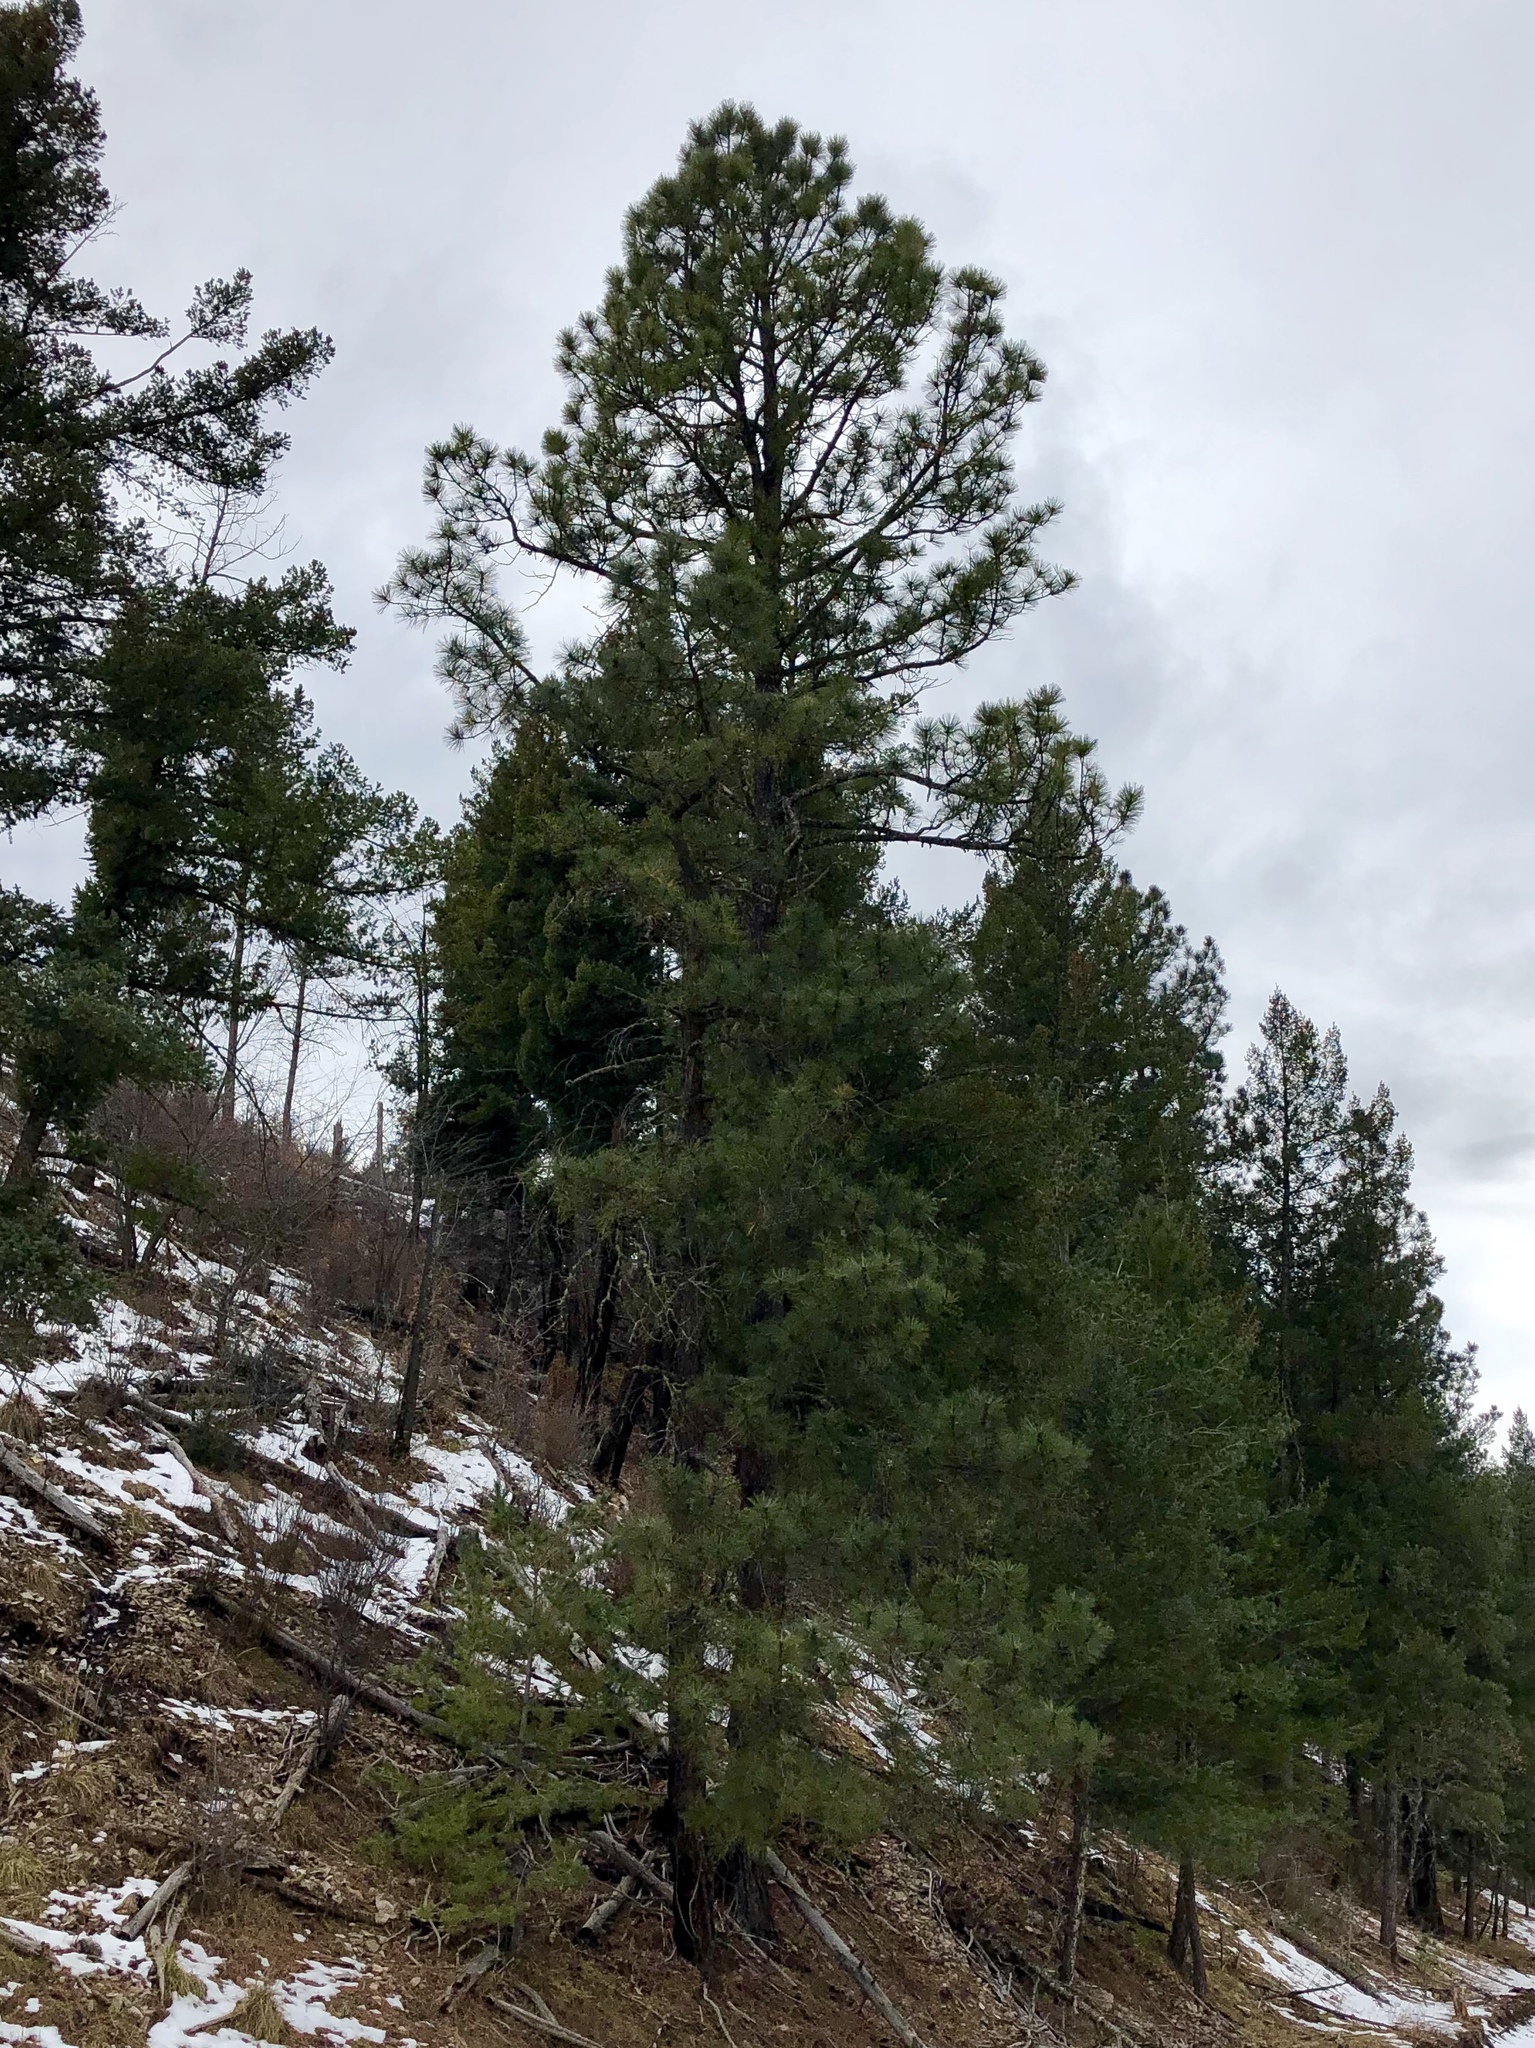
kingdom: Plantae
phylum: Tracheophyta
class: Pinopsida
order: Pinales
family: Pinaceae
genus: Pinus
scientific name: Pinus ponderosa
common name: Western yellow-pine
